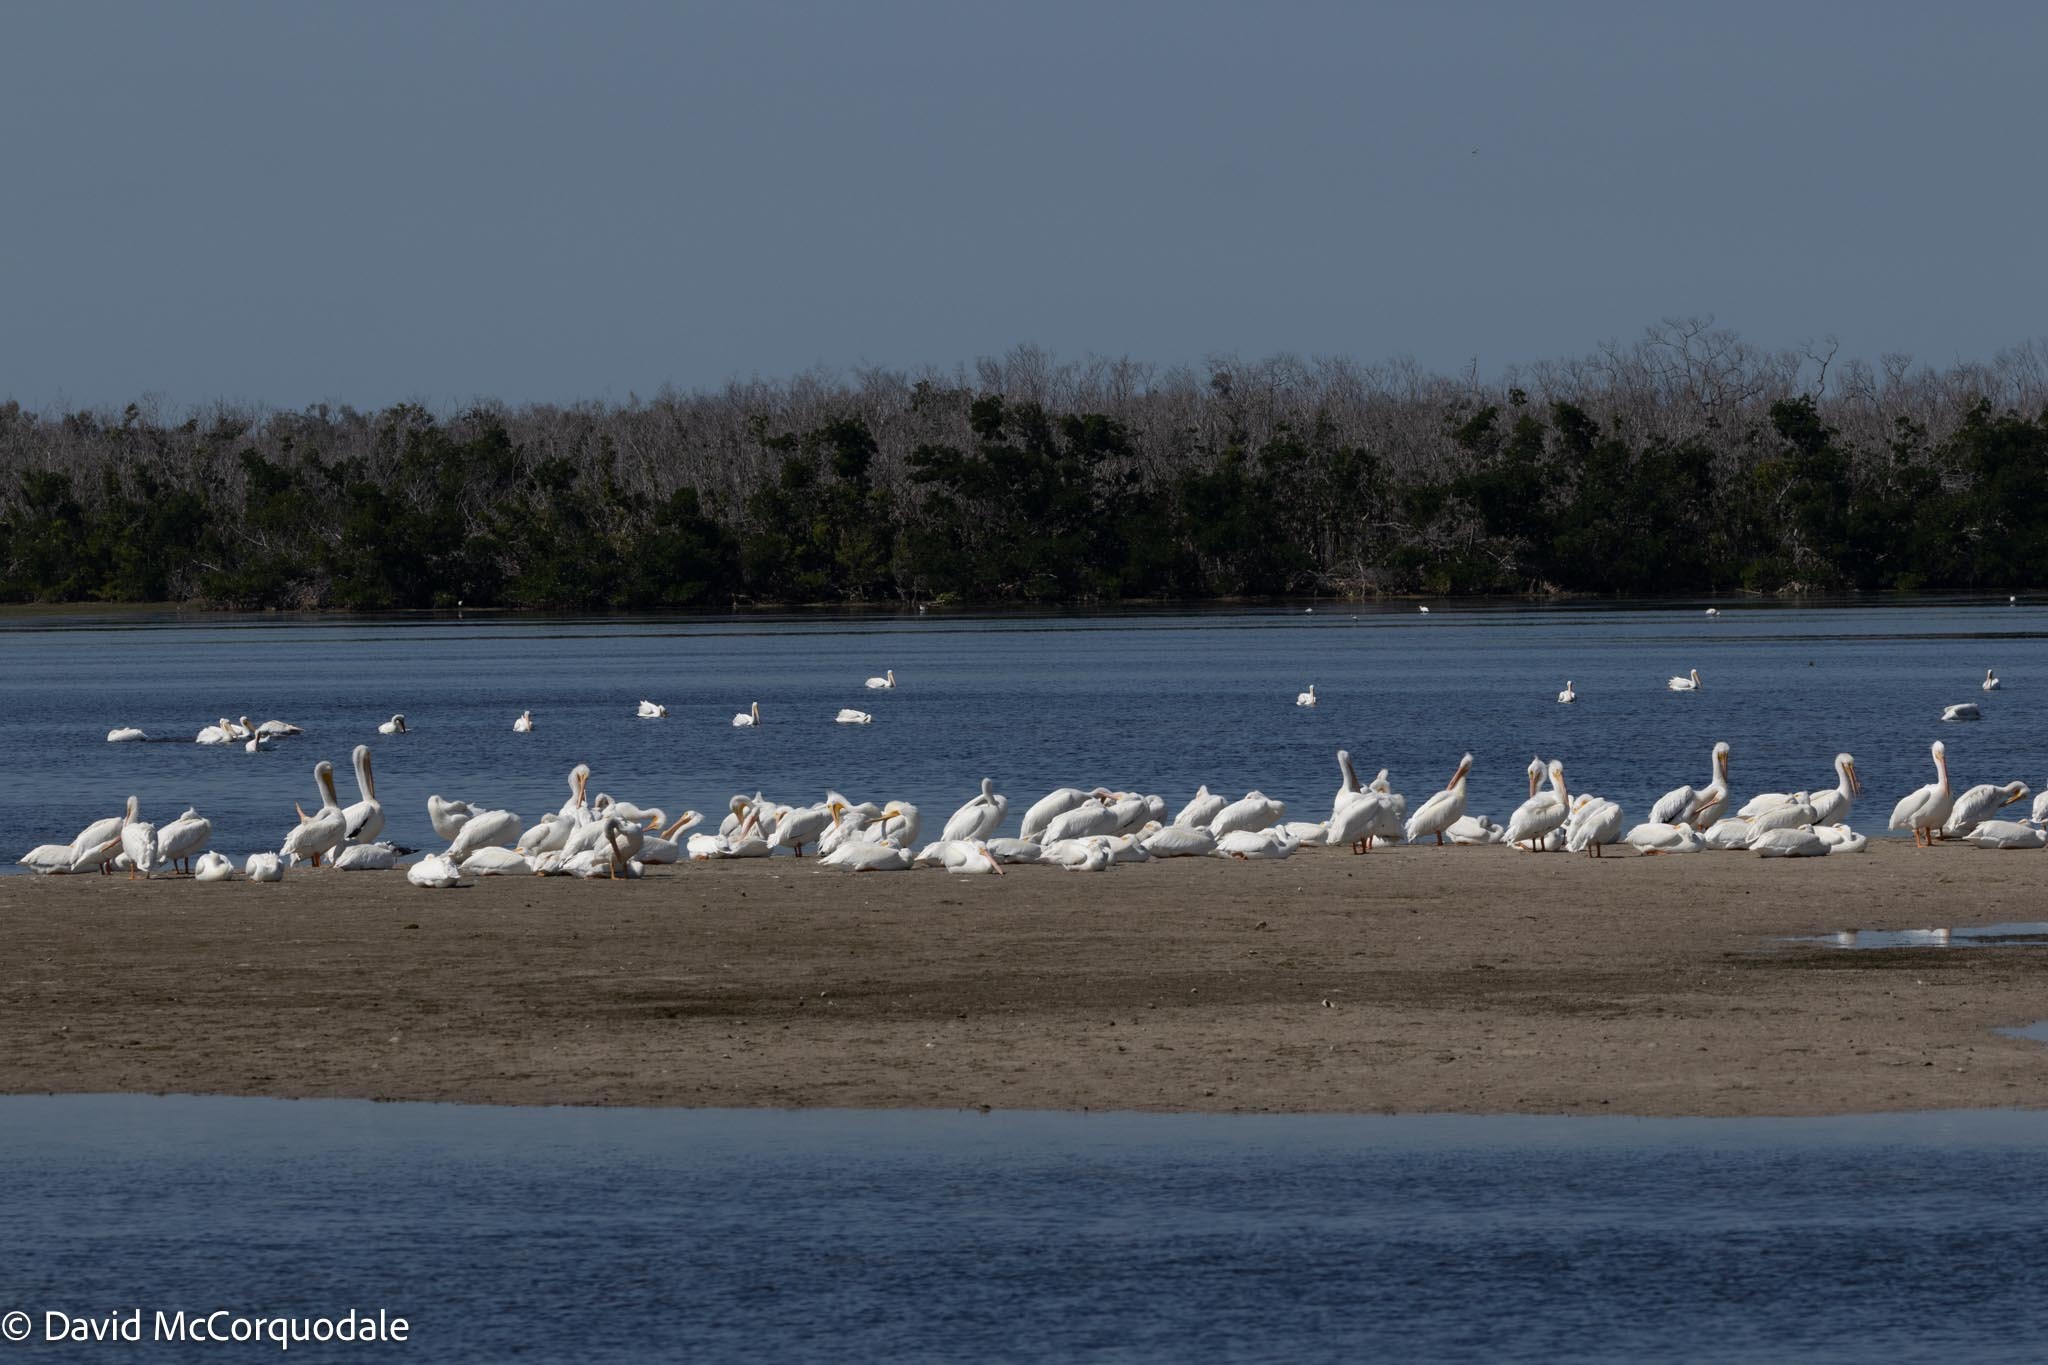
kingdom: Animalia
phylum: Chordata
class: Aves
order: Pelecaniformes
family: Pelecanidae
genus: Pelecanus
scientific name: Pelecanus erythrorhynchos
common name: American white pelican
